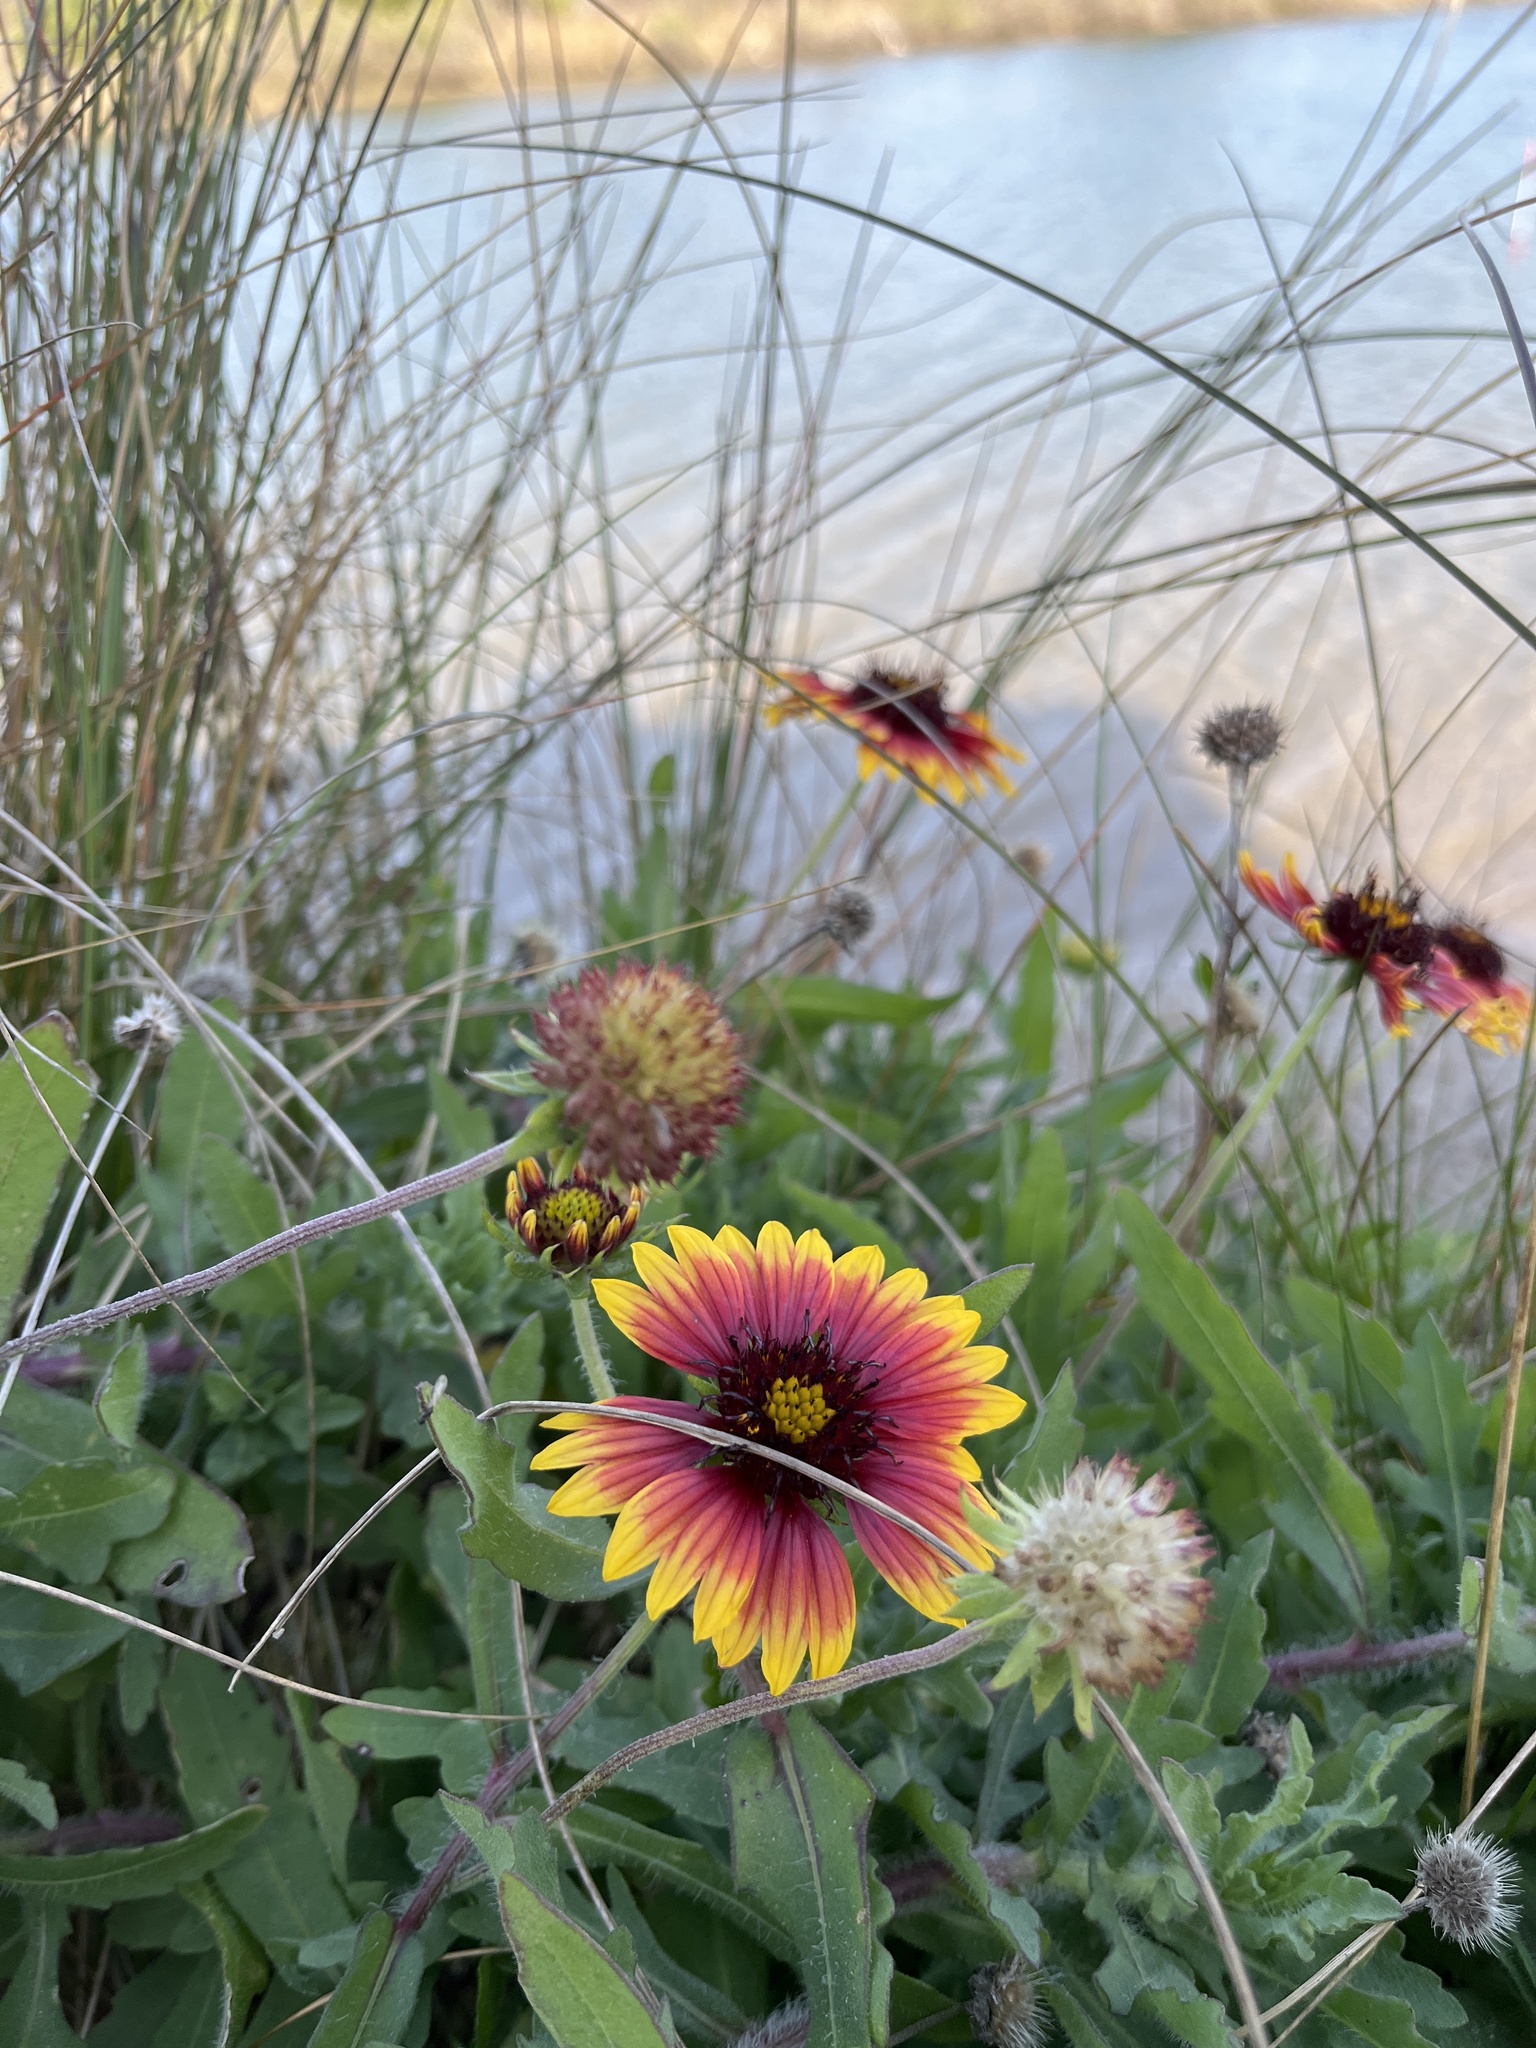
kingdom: Plantae
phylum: Tracheophyta
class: Magnoliopsida
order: Asterales
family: Asteraceae
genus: Gaillardia
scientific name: Gaillardia pulchella
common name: Firewheel
